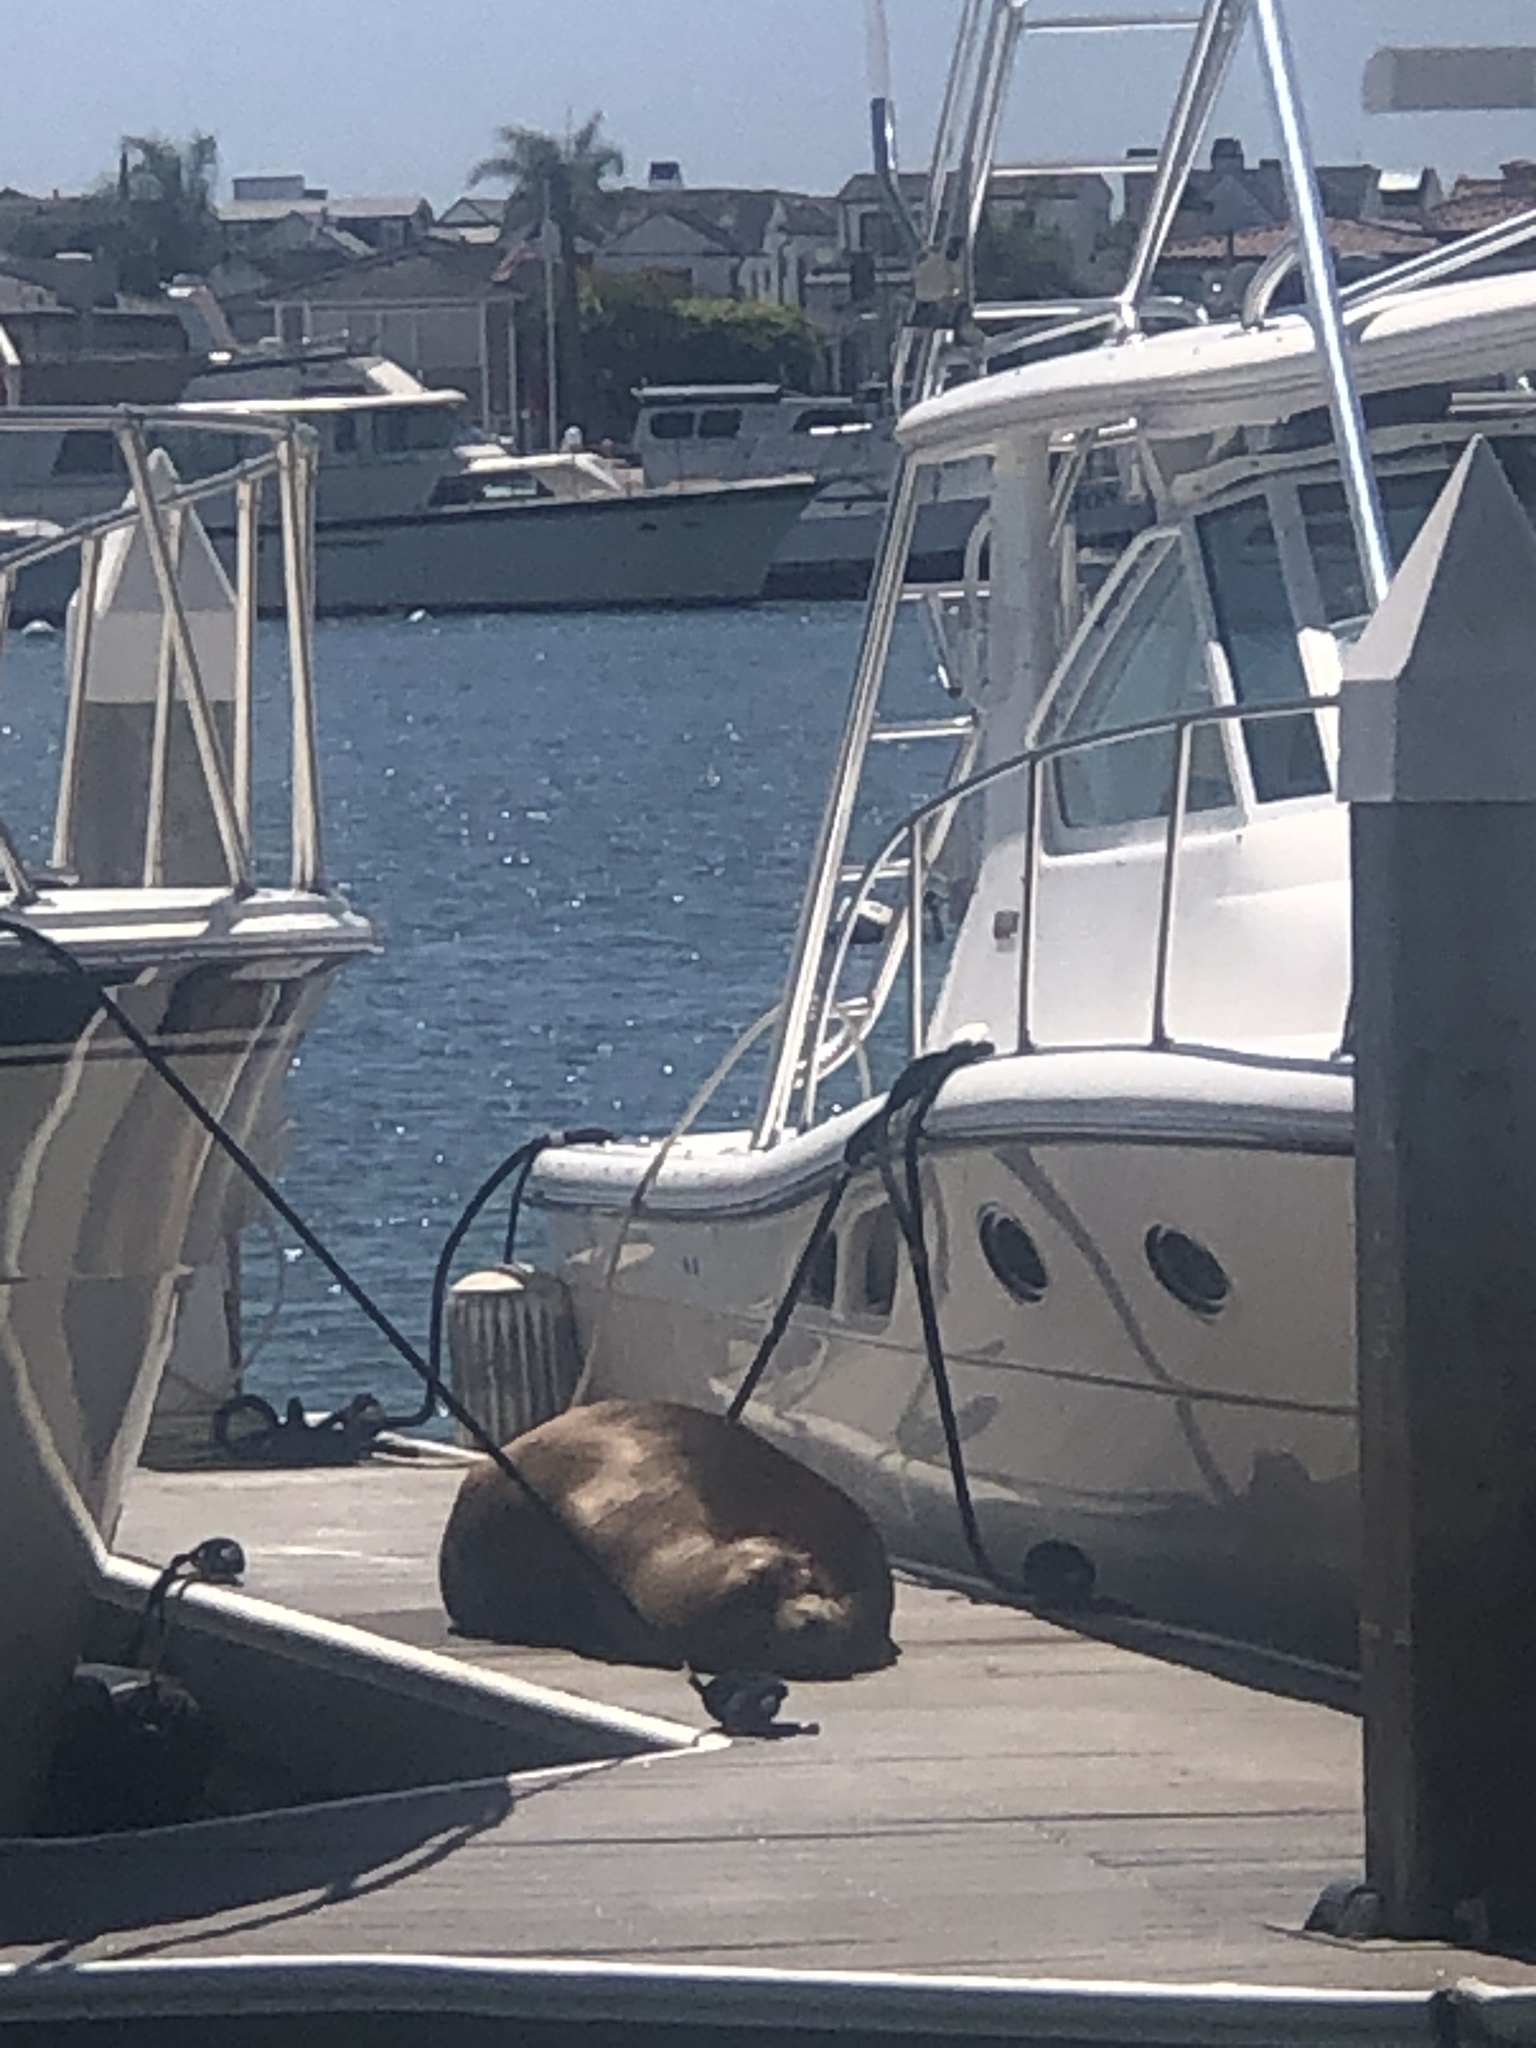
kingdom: Animalia
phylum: Chordata
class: Mammalia
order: Carnivora
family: Otariidae
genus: Zalophus
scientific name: Zalophus californianus
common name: California sea lion
